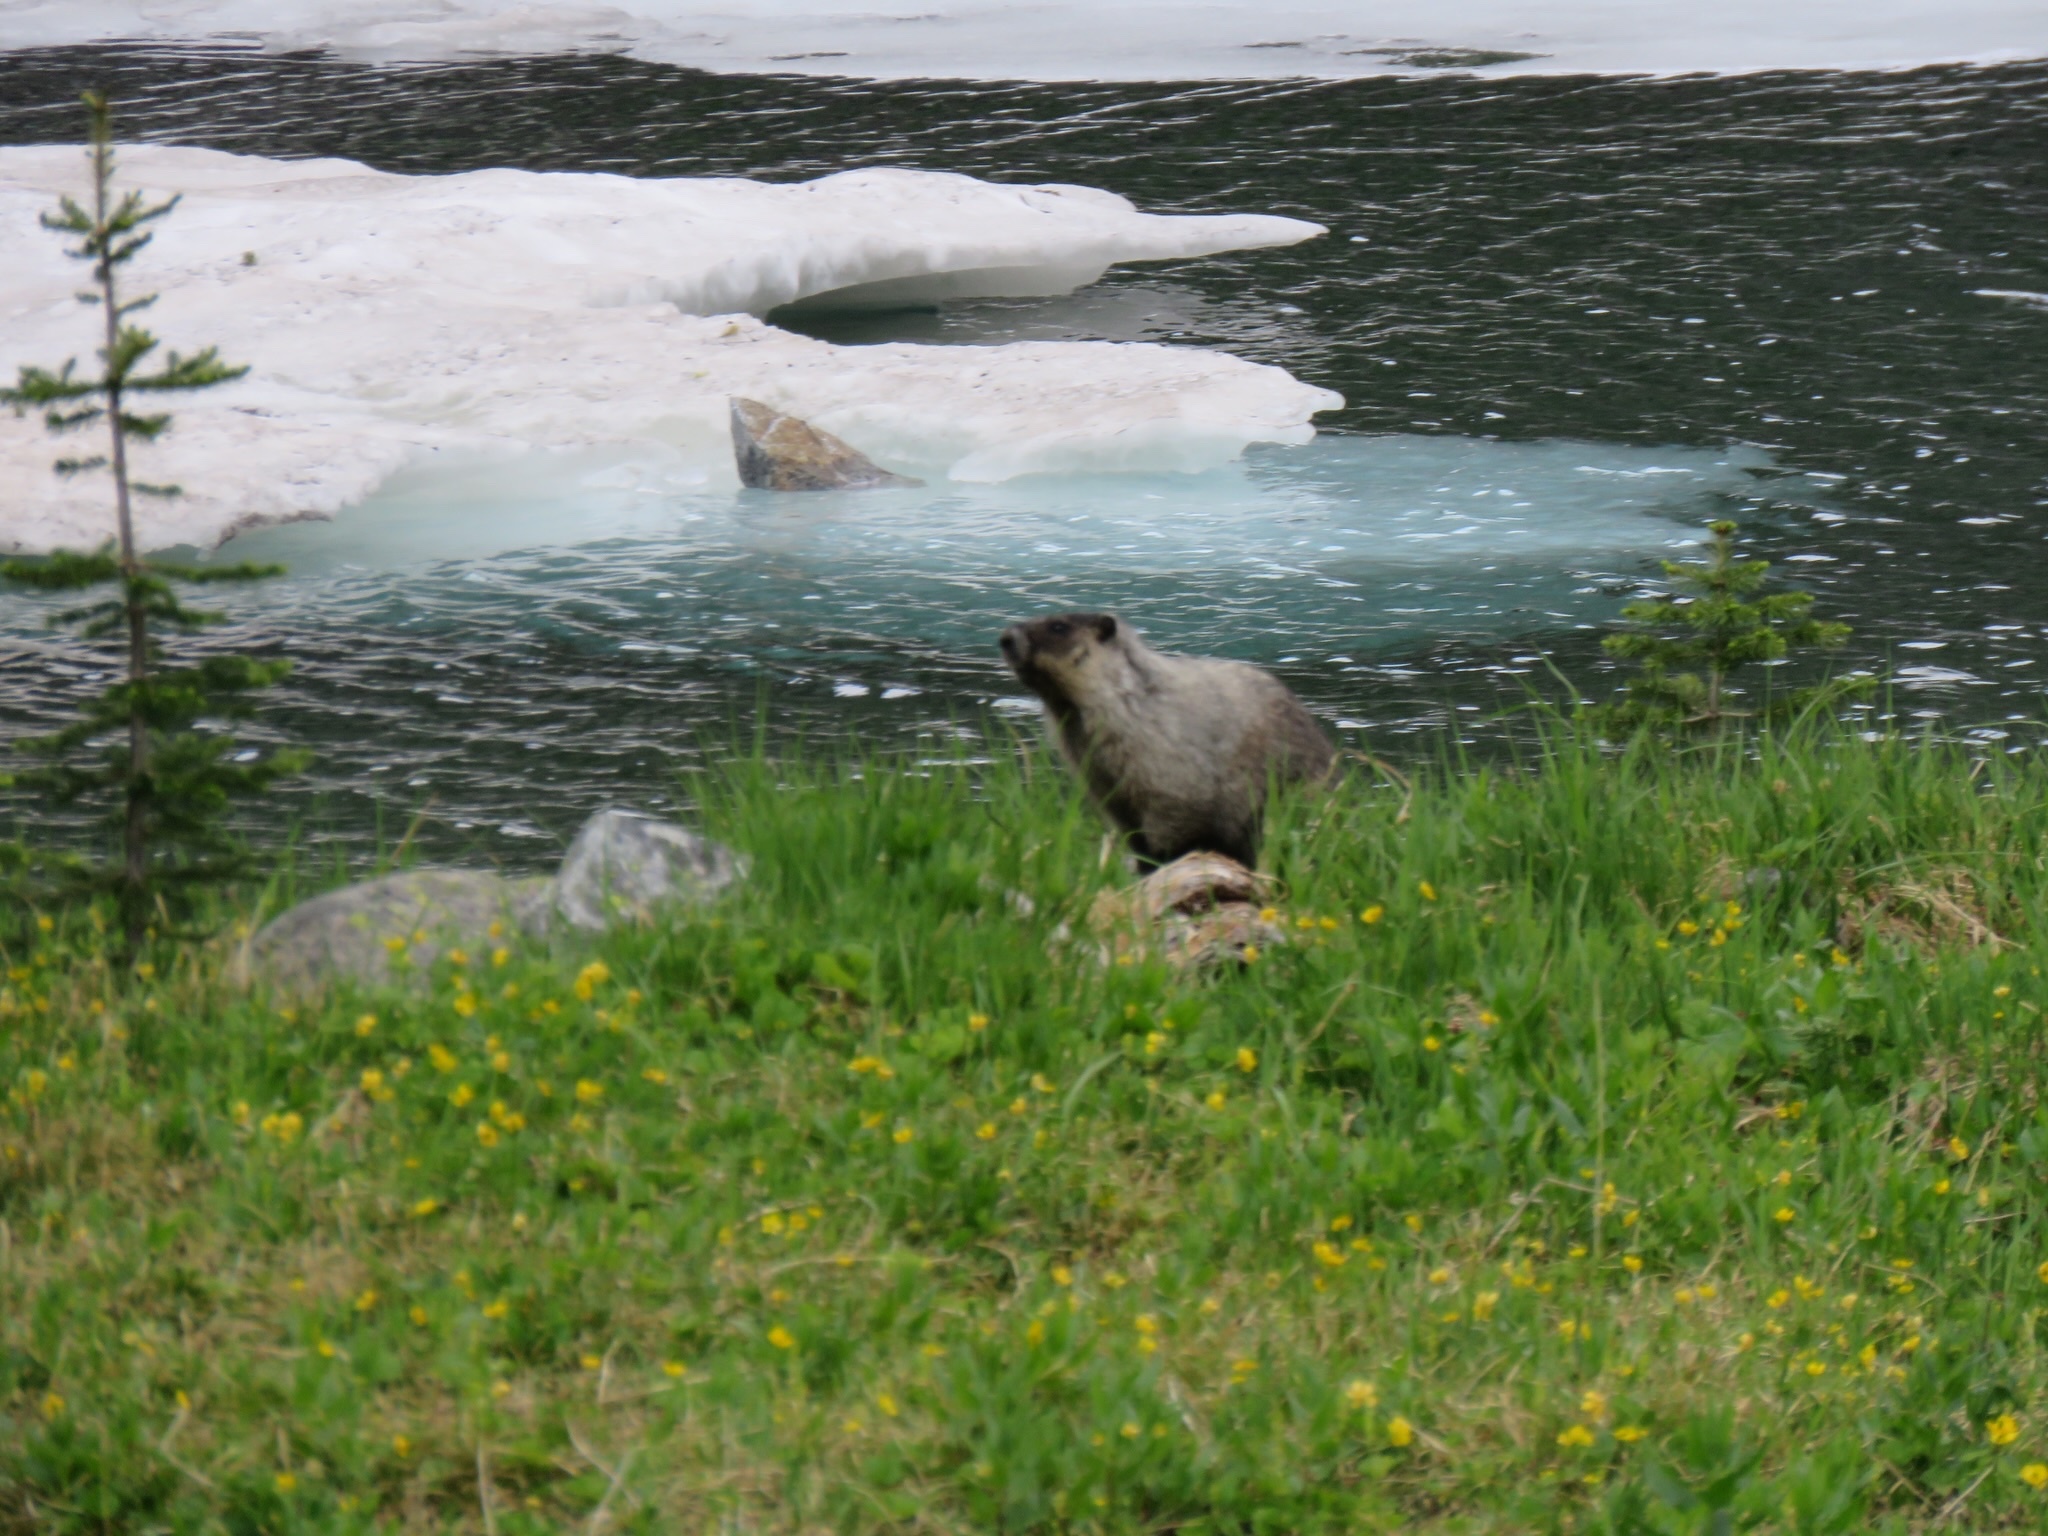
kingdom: Animalia
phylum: Chordata
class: Mammalia
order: Rodentia
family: Sciuridae
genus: Marmota
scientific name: Marmota caligata
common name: Hoary marmot
